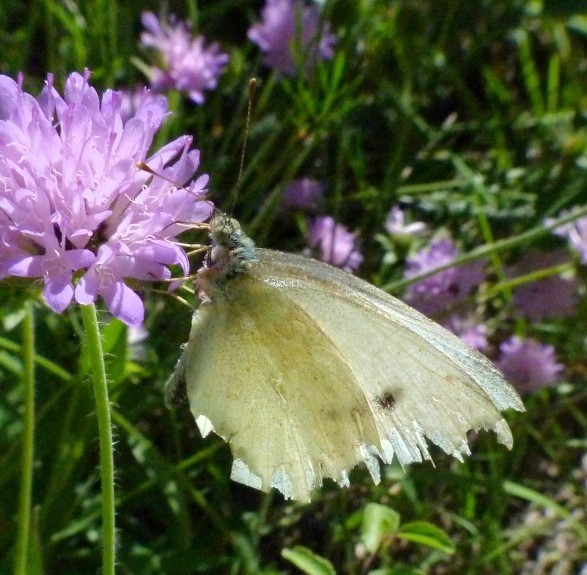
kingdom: Animalia
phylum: Arthropoda
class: Insecta
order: Lepidoptera
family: Pieridae
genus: Pieris
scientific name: Pieris rapae
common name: Small white
